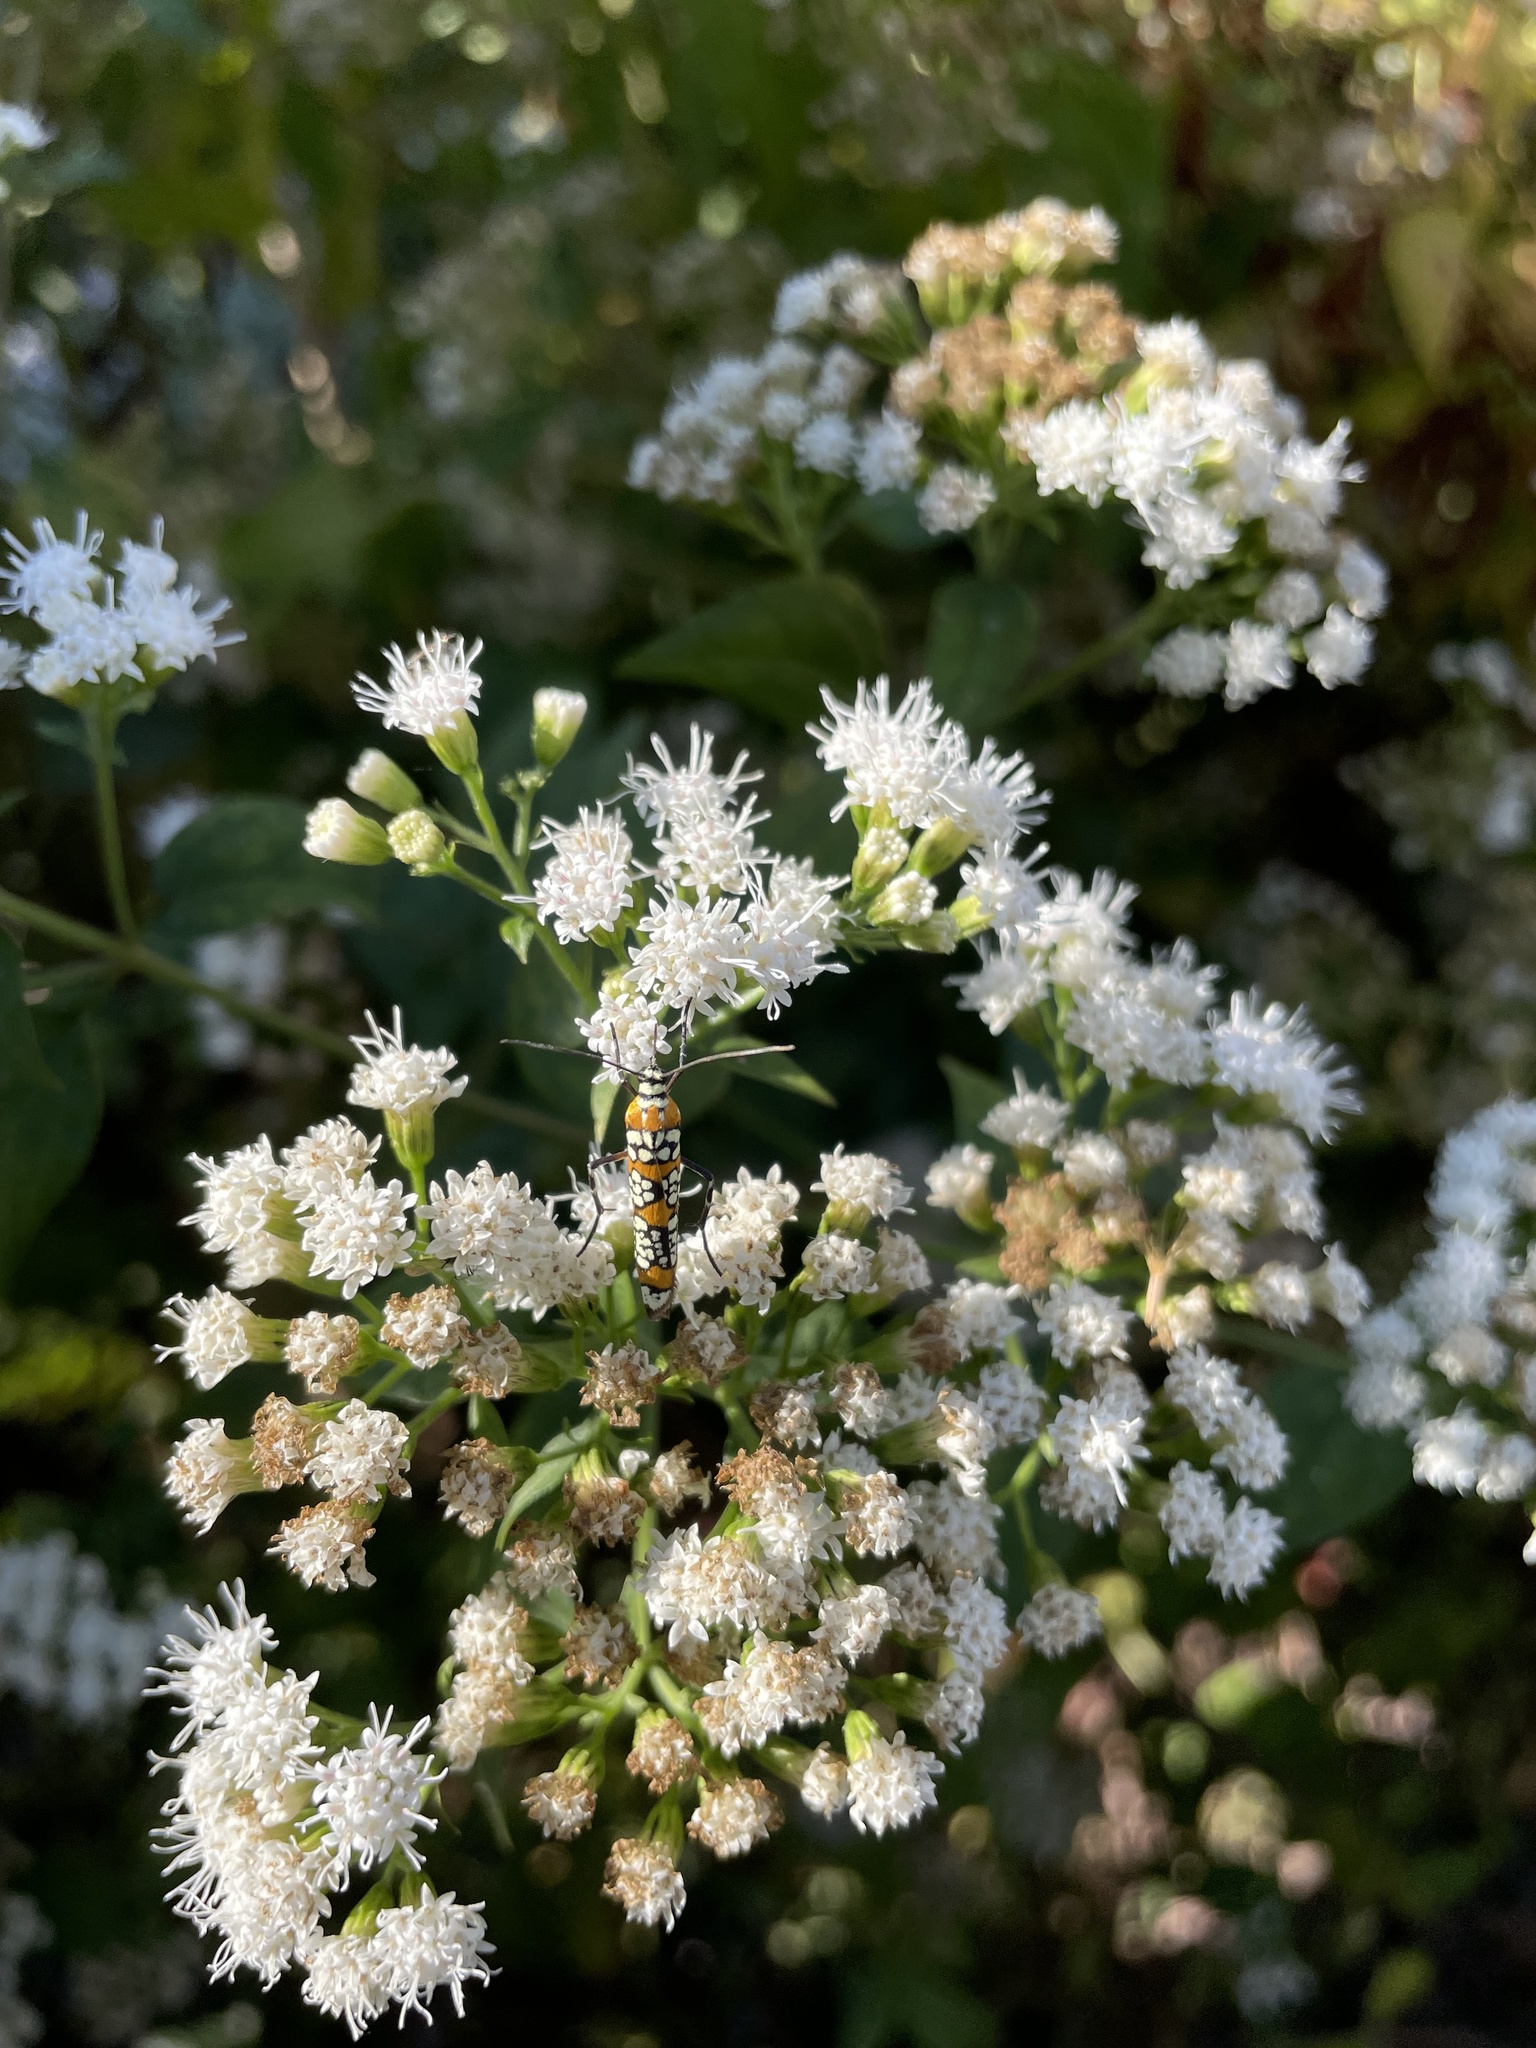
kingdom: Animalia
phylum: Arthropoda
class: Insecta
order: Lepidoptera
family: Attevidae
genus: Atteva
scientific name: Atteva punctella
